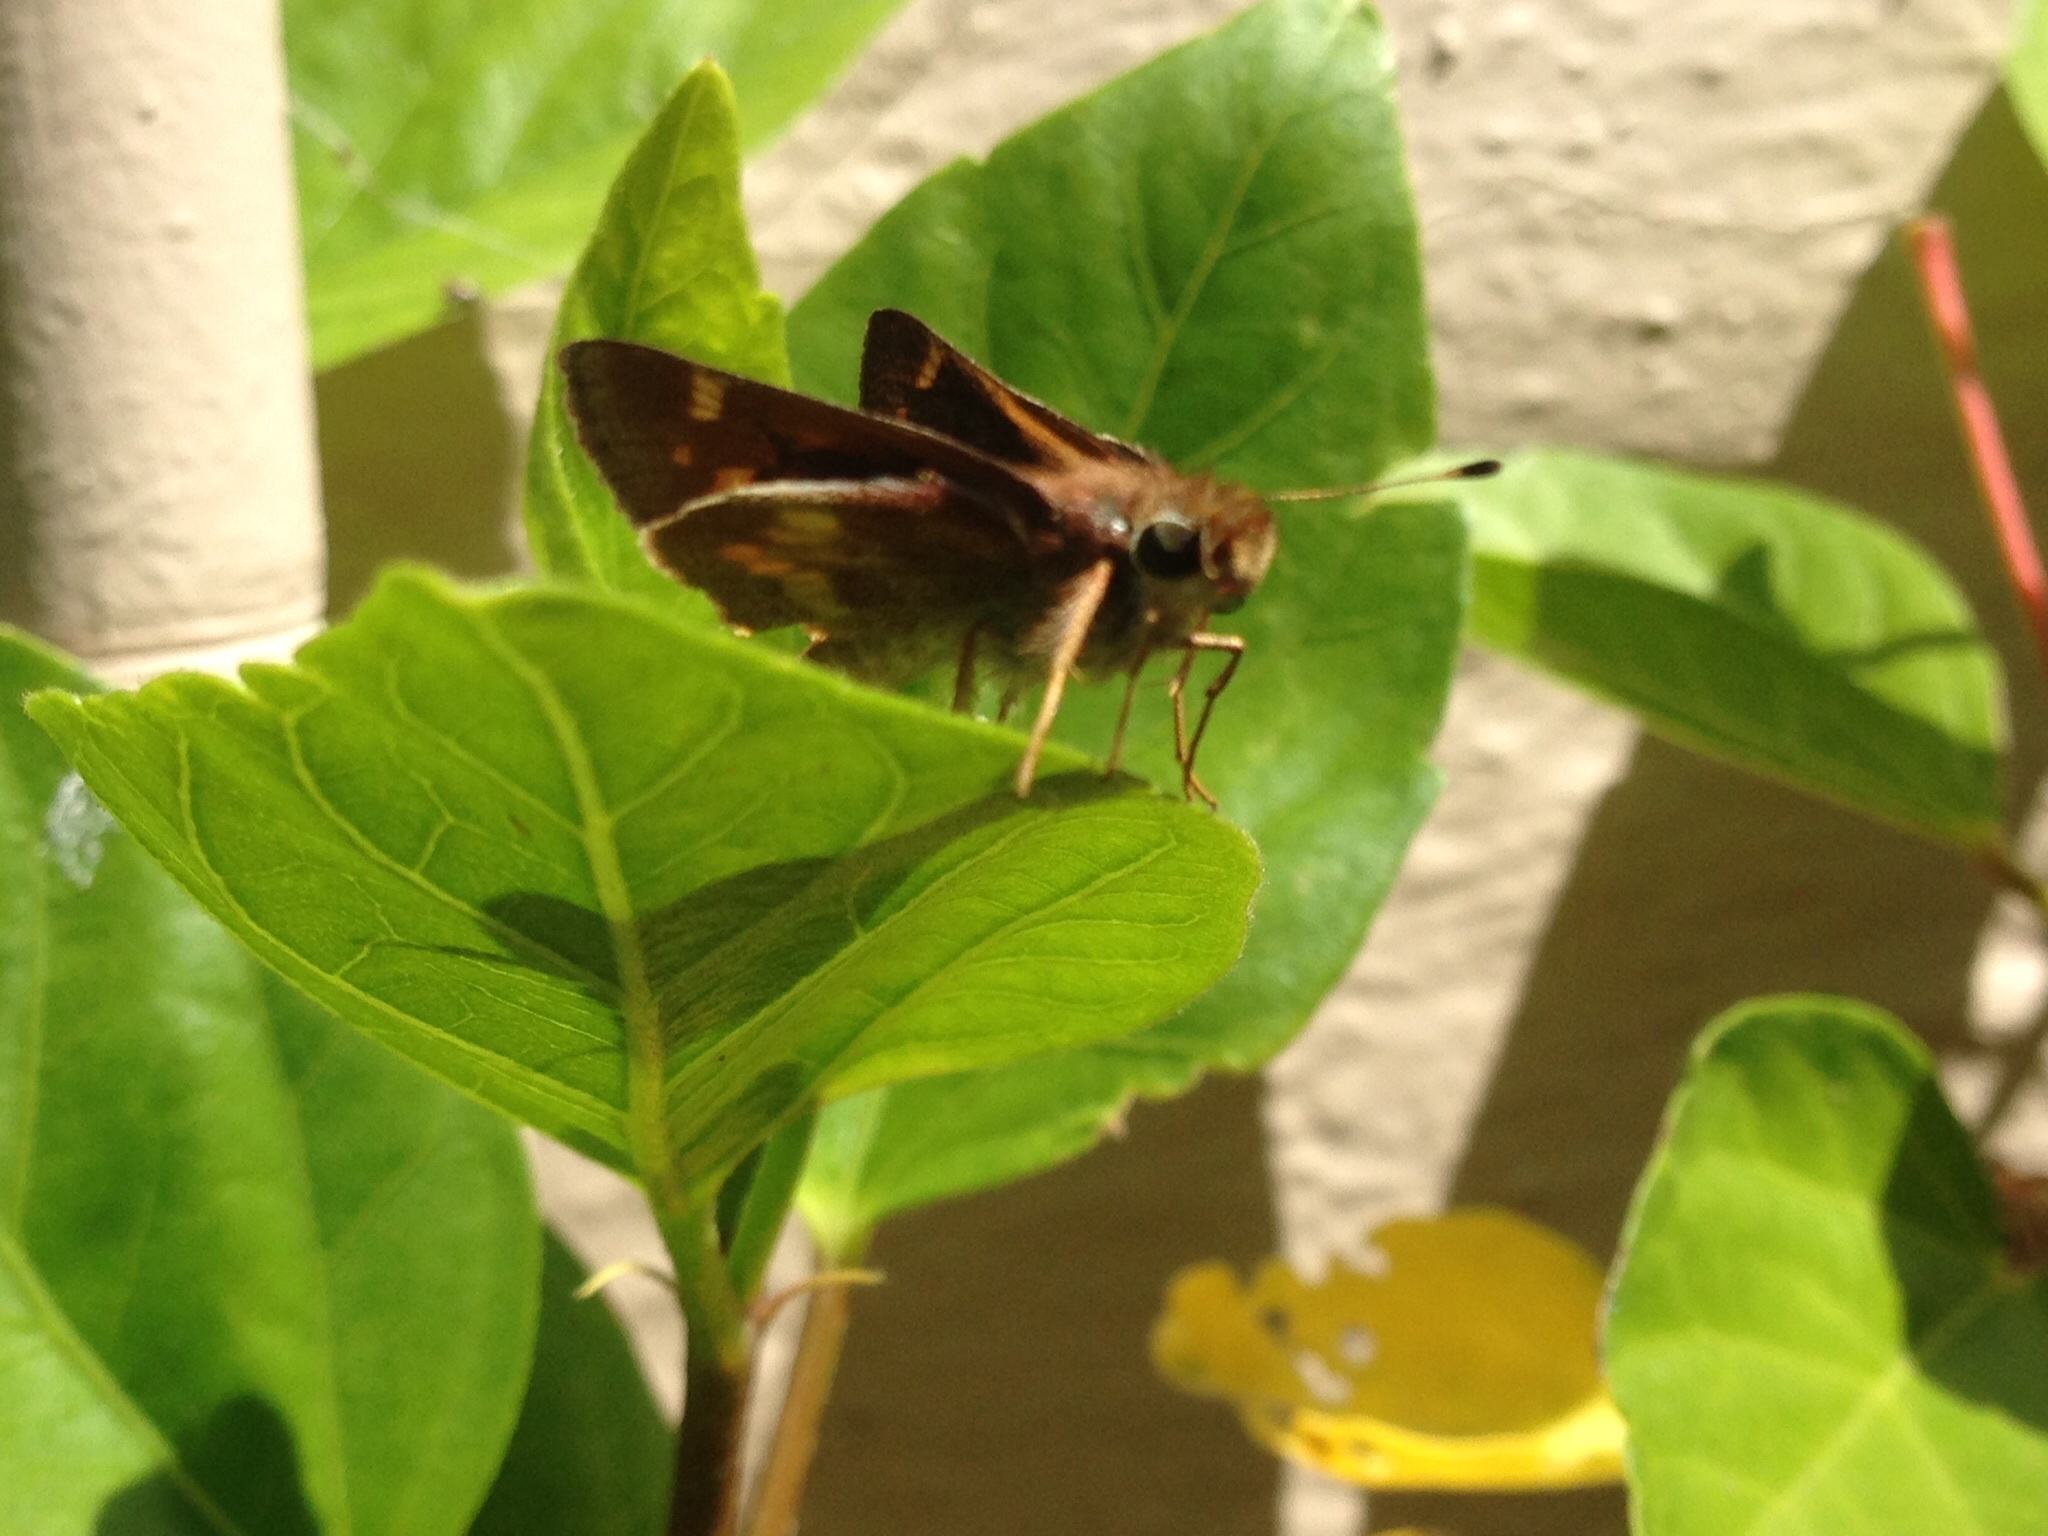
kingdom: Animalia
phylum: Arthropoda
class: Insecta
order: Lepidoptera
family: Hesperiidae
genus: Lon
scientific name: Lon melane
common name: Umber skipper
